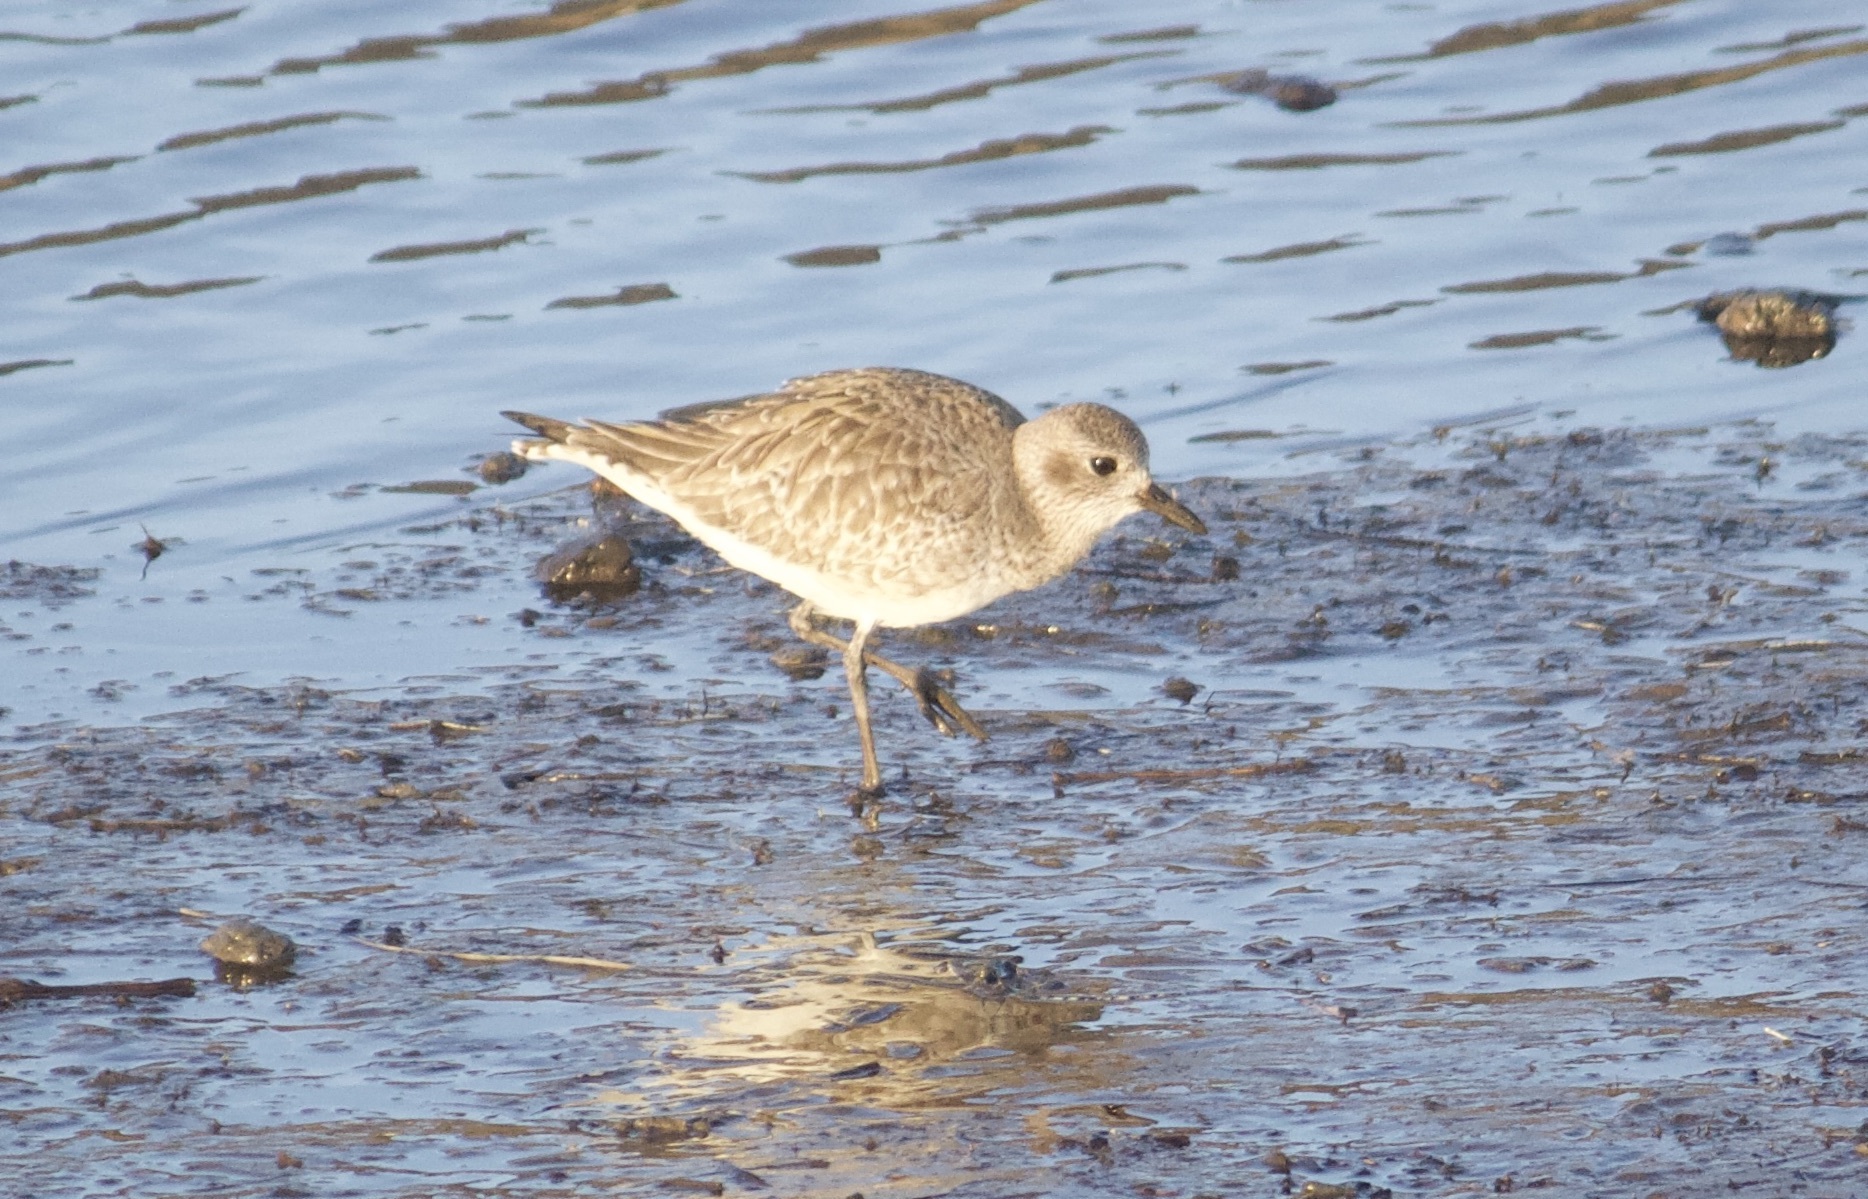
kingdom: Animalia
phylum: Chordata
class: Aves
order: Charadriiformes
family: Charadriidae
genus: Pluvialis
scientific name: Pluvialis squatarola
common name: Grey plover
